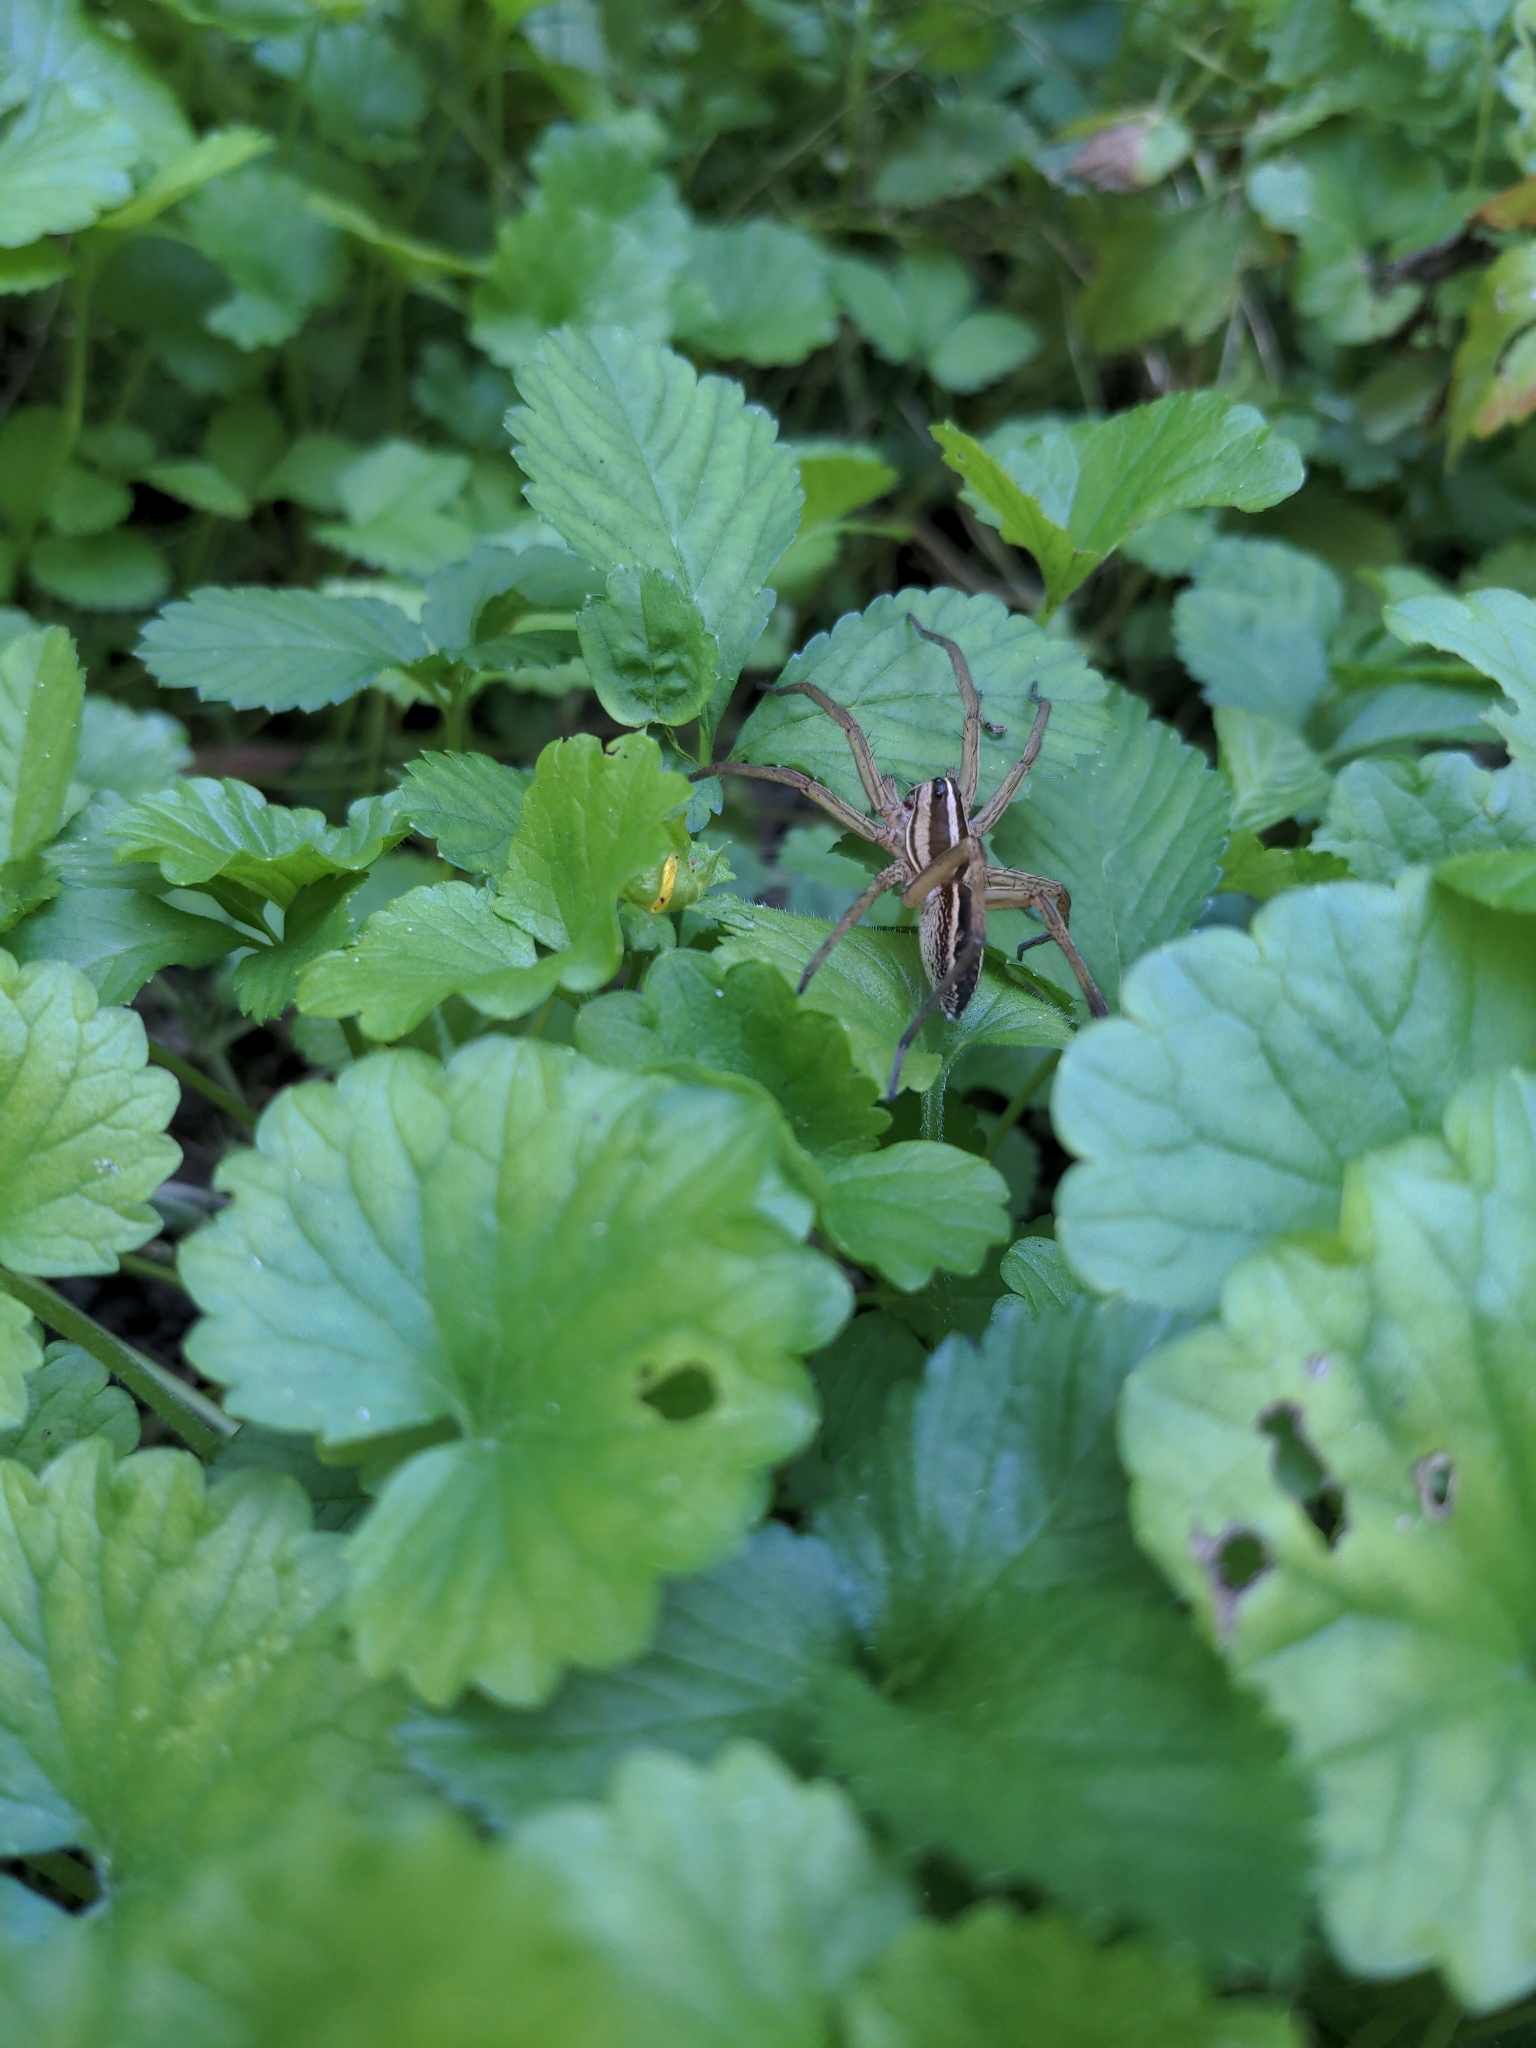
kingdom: Animalia
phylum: Arthropoda
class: Arachnida
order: Araneae
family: Lycosidae
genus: Rabidosa
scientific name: Rabidosa rabida
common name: Rabid wolf spider
